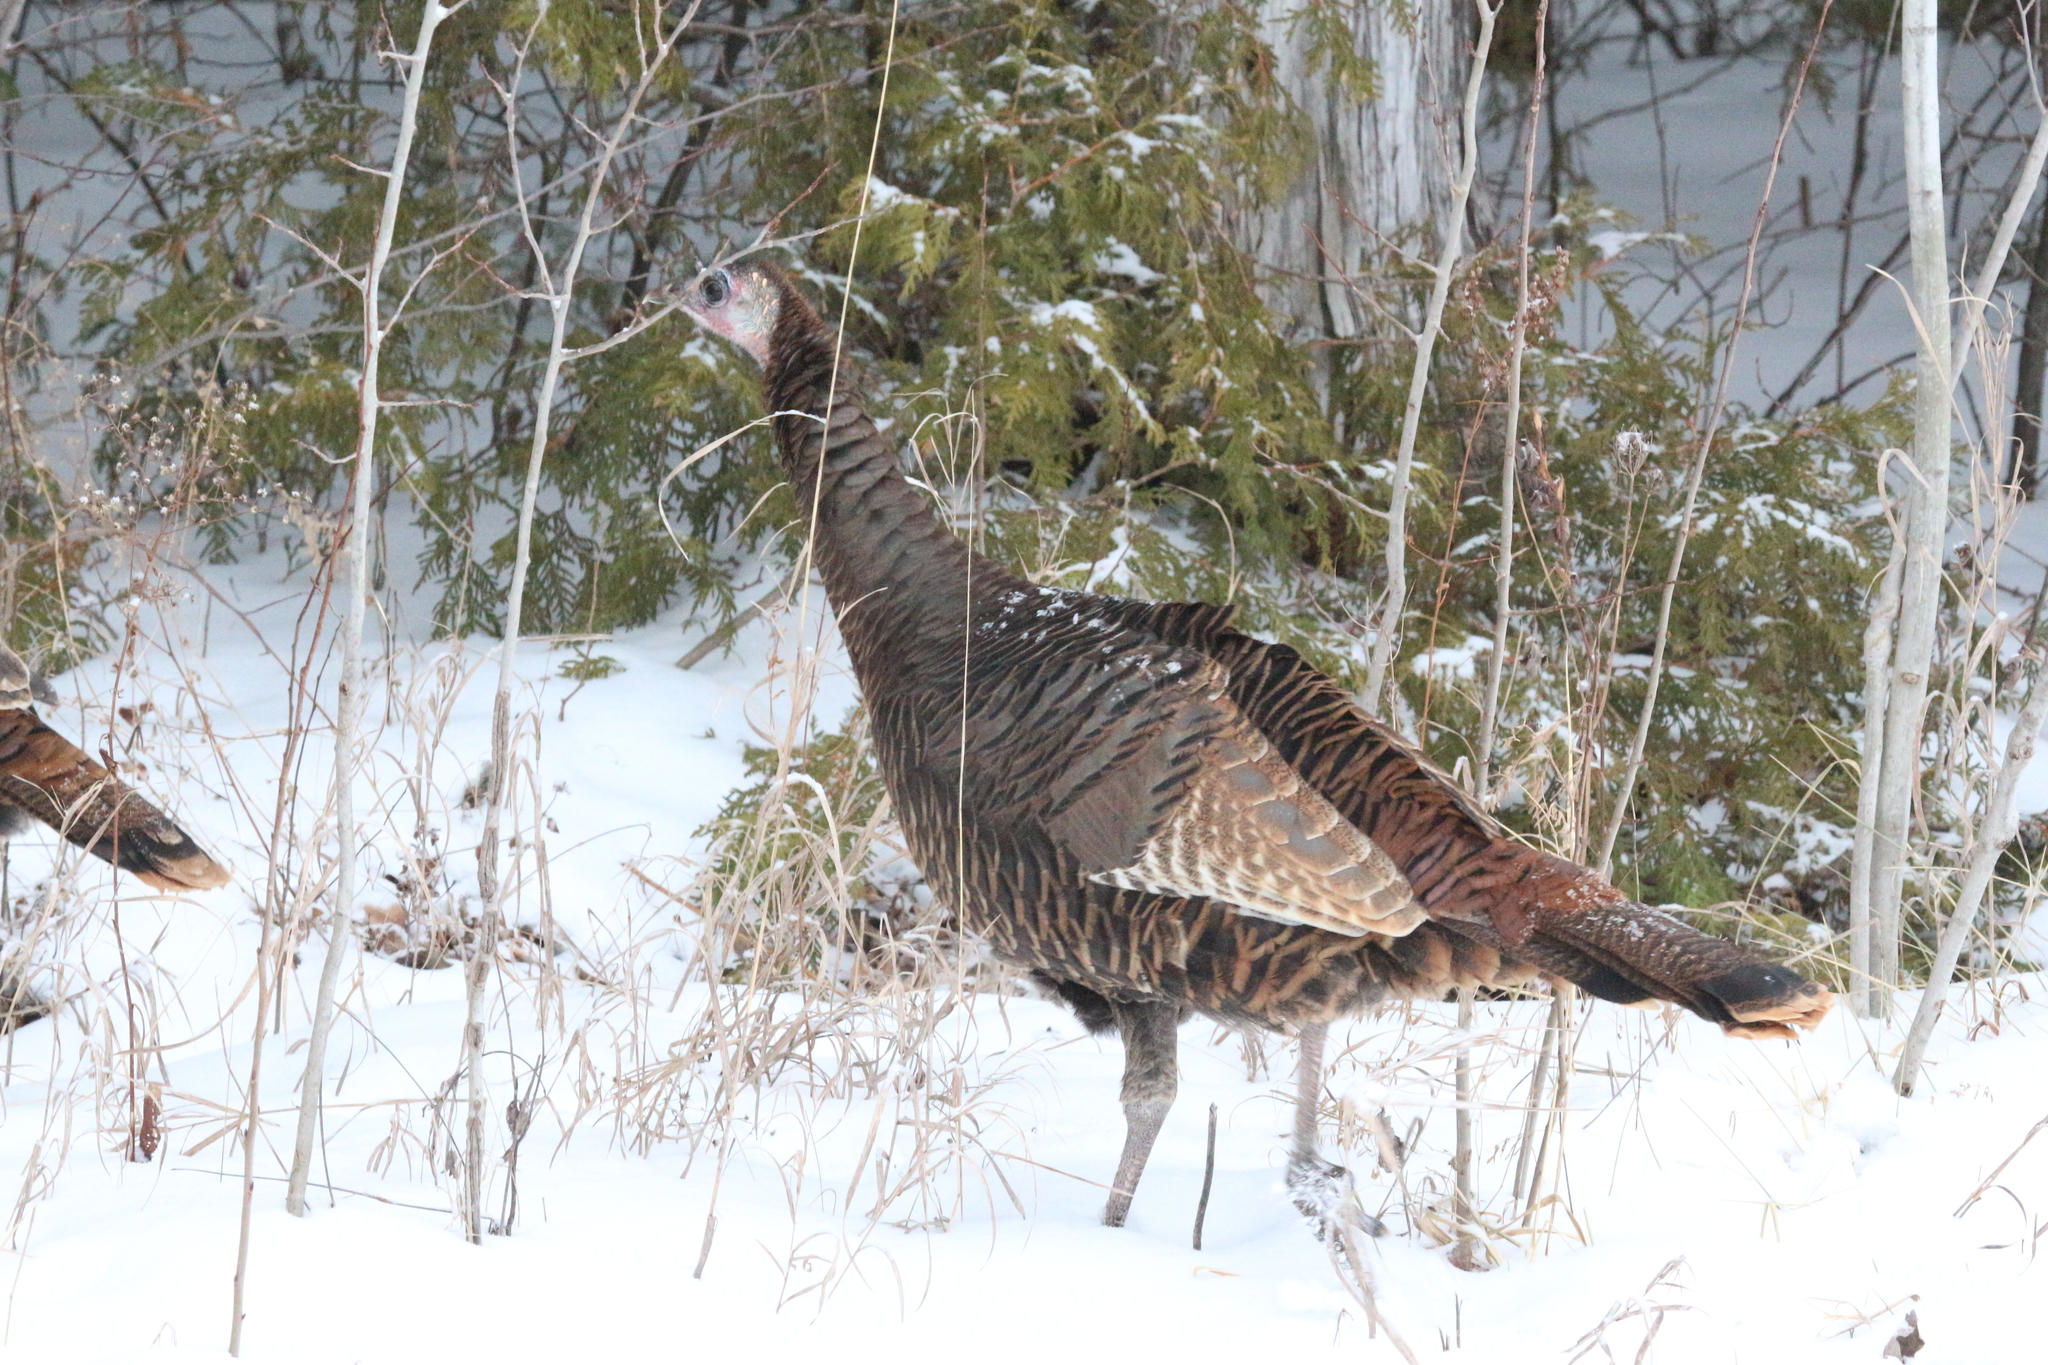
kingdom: Animalia
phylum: Chordata
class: Aves
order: Galliformes
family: Phasianidae
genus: Meleagris
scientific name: Meleagris gallopavo
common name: Wild turkey
